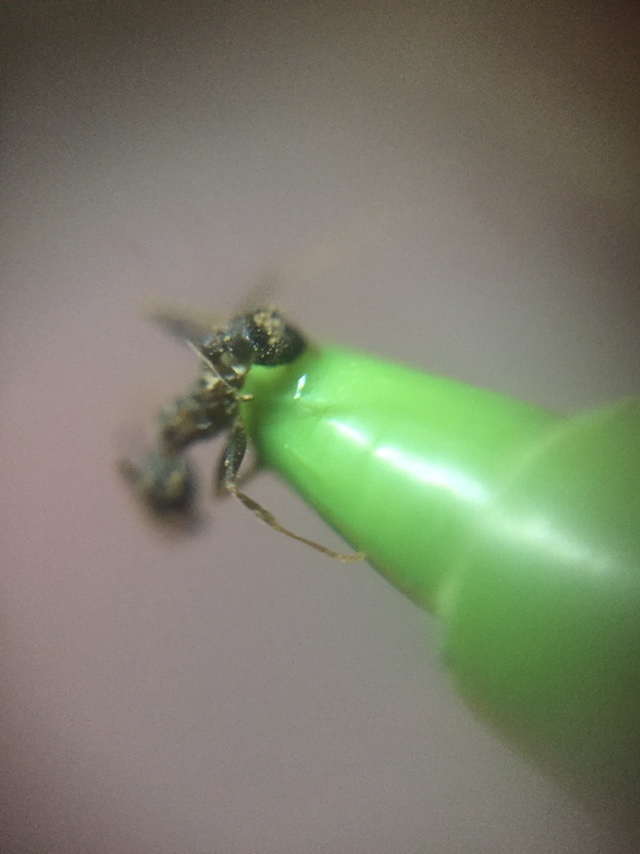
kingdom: Animalia
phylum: Arthropoda
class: Insecta
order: Hymenoptera
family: Formicidae
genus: Pheidole
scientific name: Pheidole spathifera
